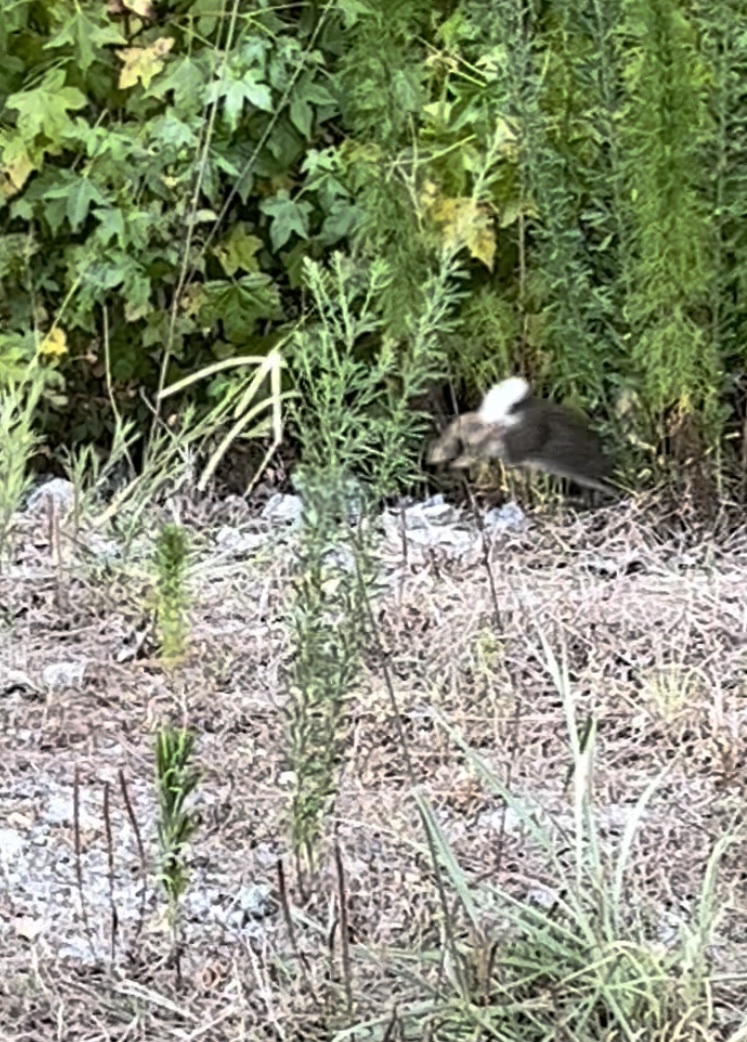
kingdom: Animalia
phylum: Chordata
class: Mammalia
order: Lagomorpha
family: Leporidae
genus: Sylvilagus
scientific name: Sylvilagus floridanus
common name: Eastern cottontail
